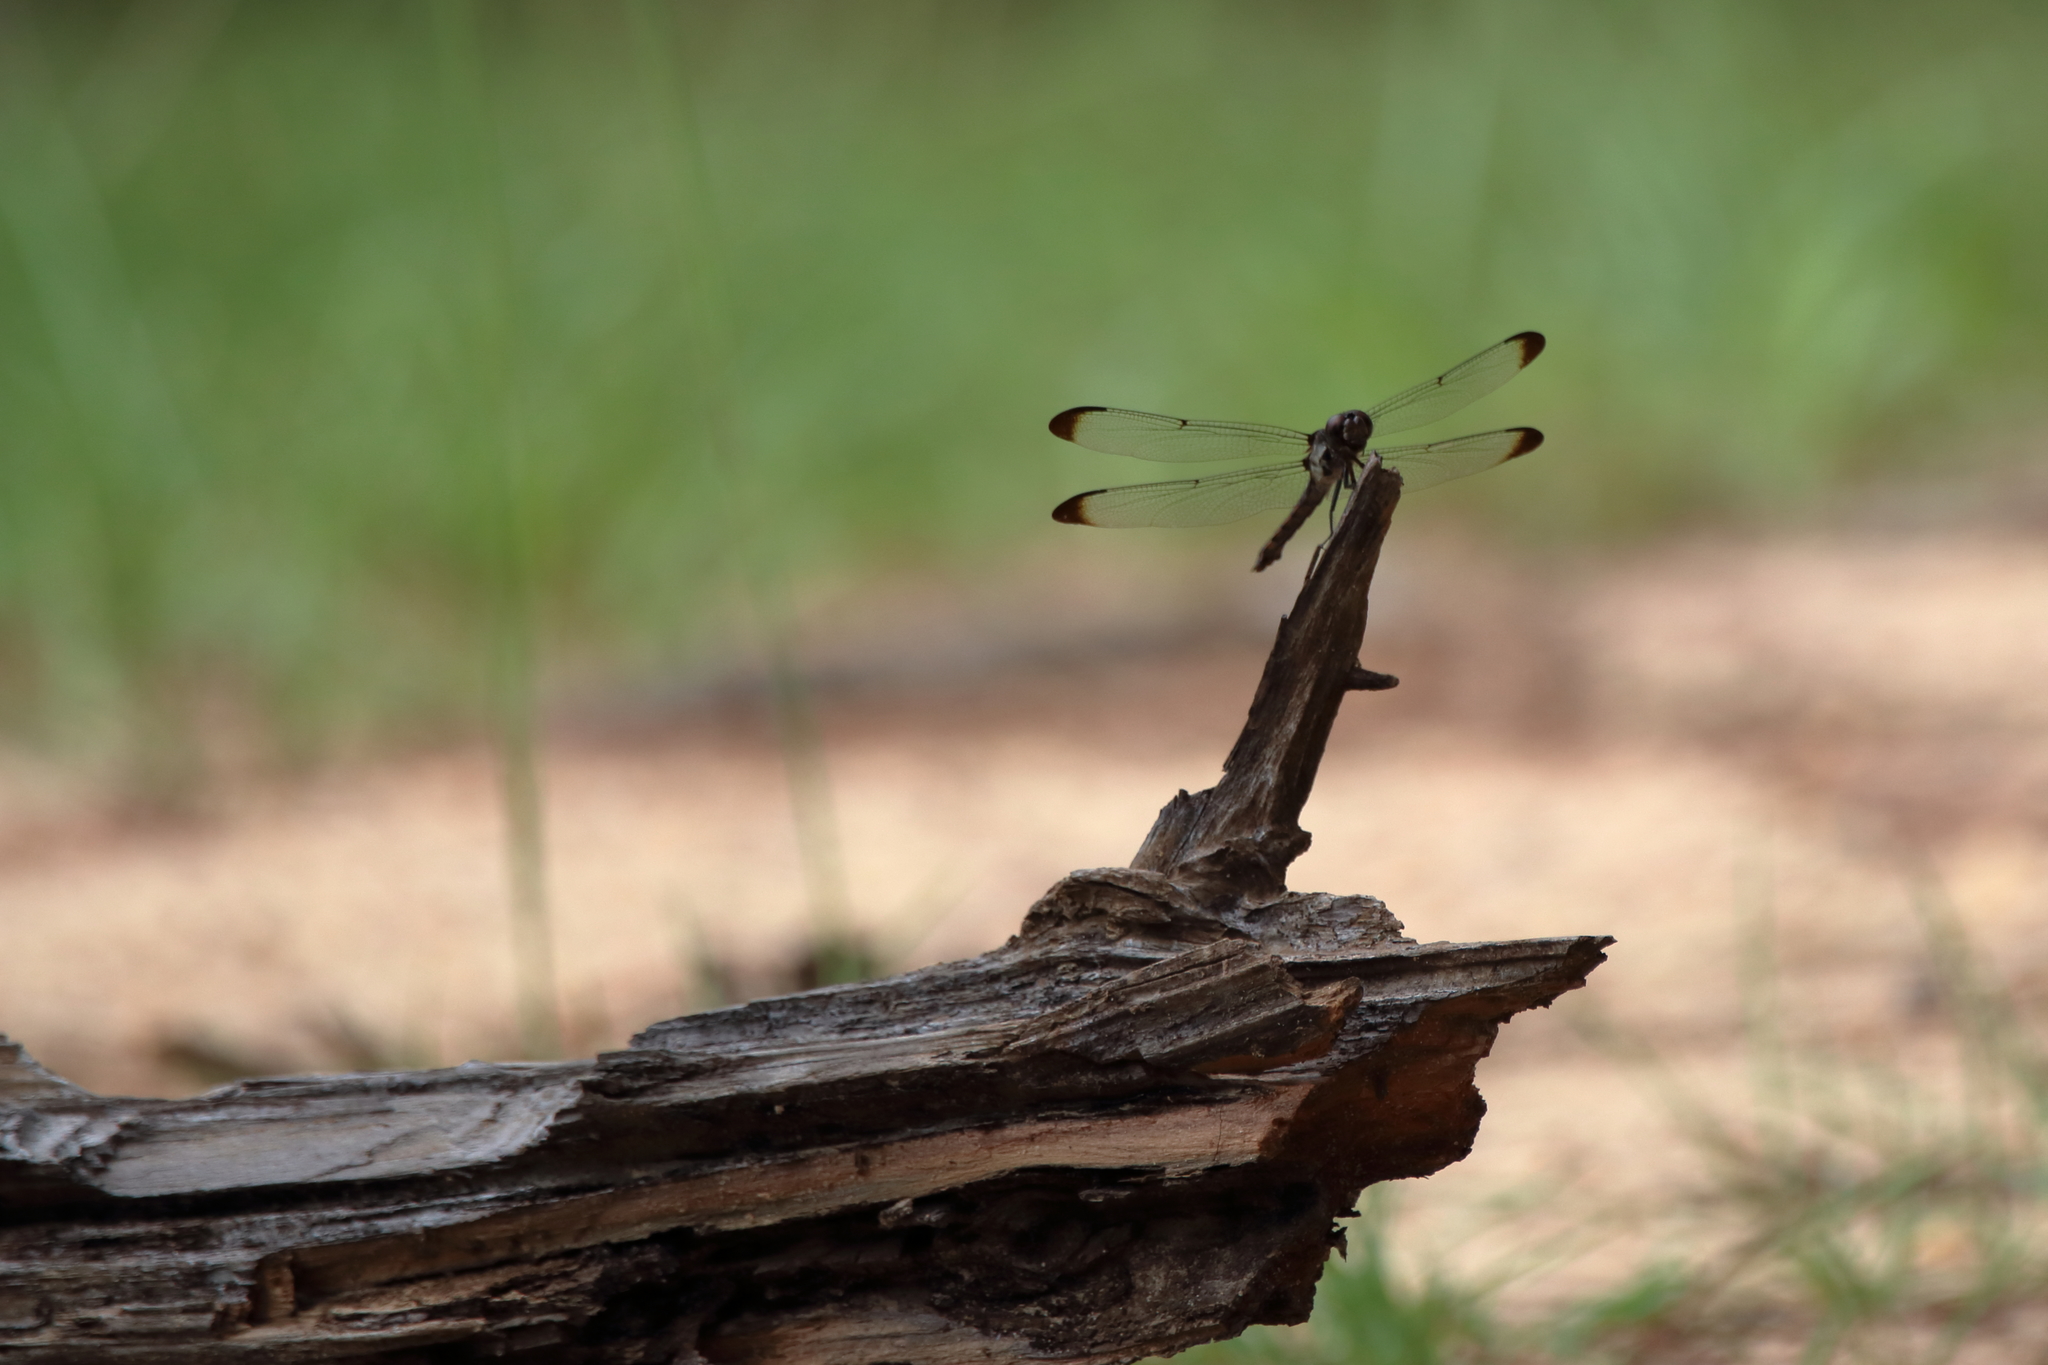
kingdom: Animalia
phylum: Arthropoda
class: Insecta
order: Odonata
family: Libellulidae
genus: Libellula
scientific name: Libellula incesta
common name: Slaty skimmer
